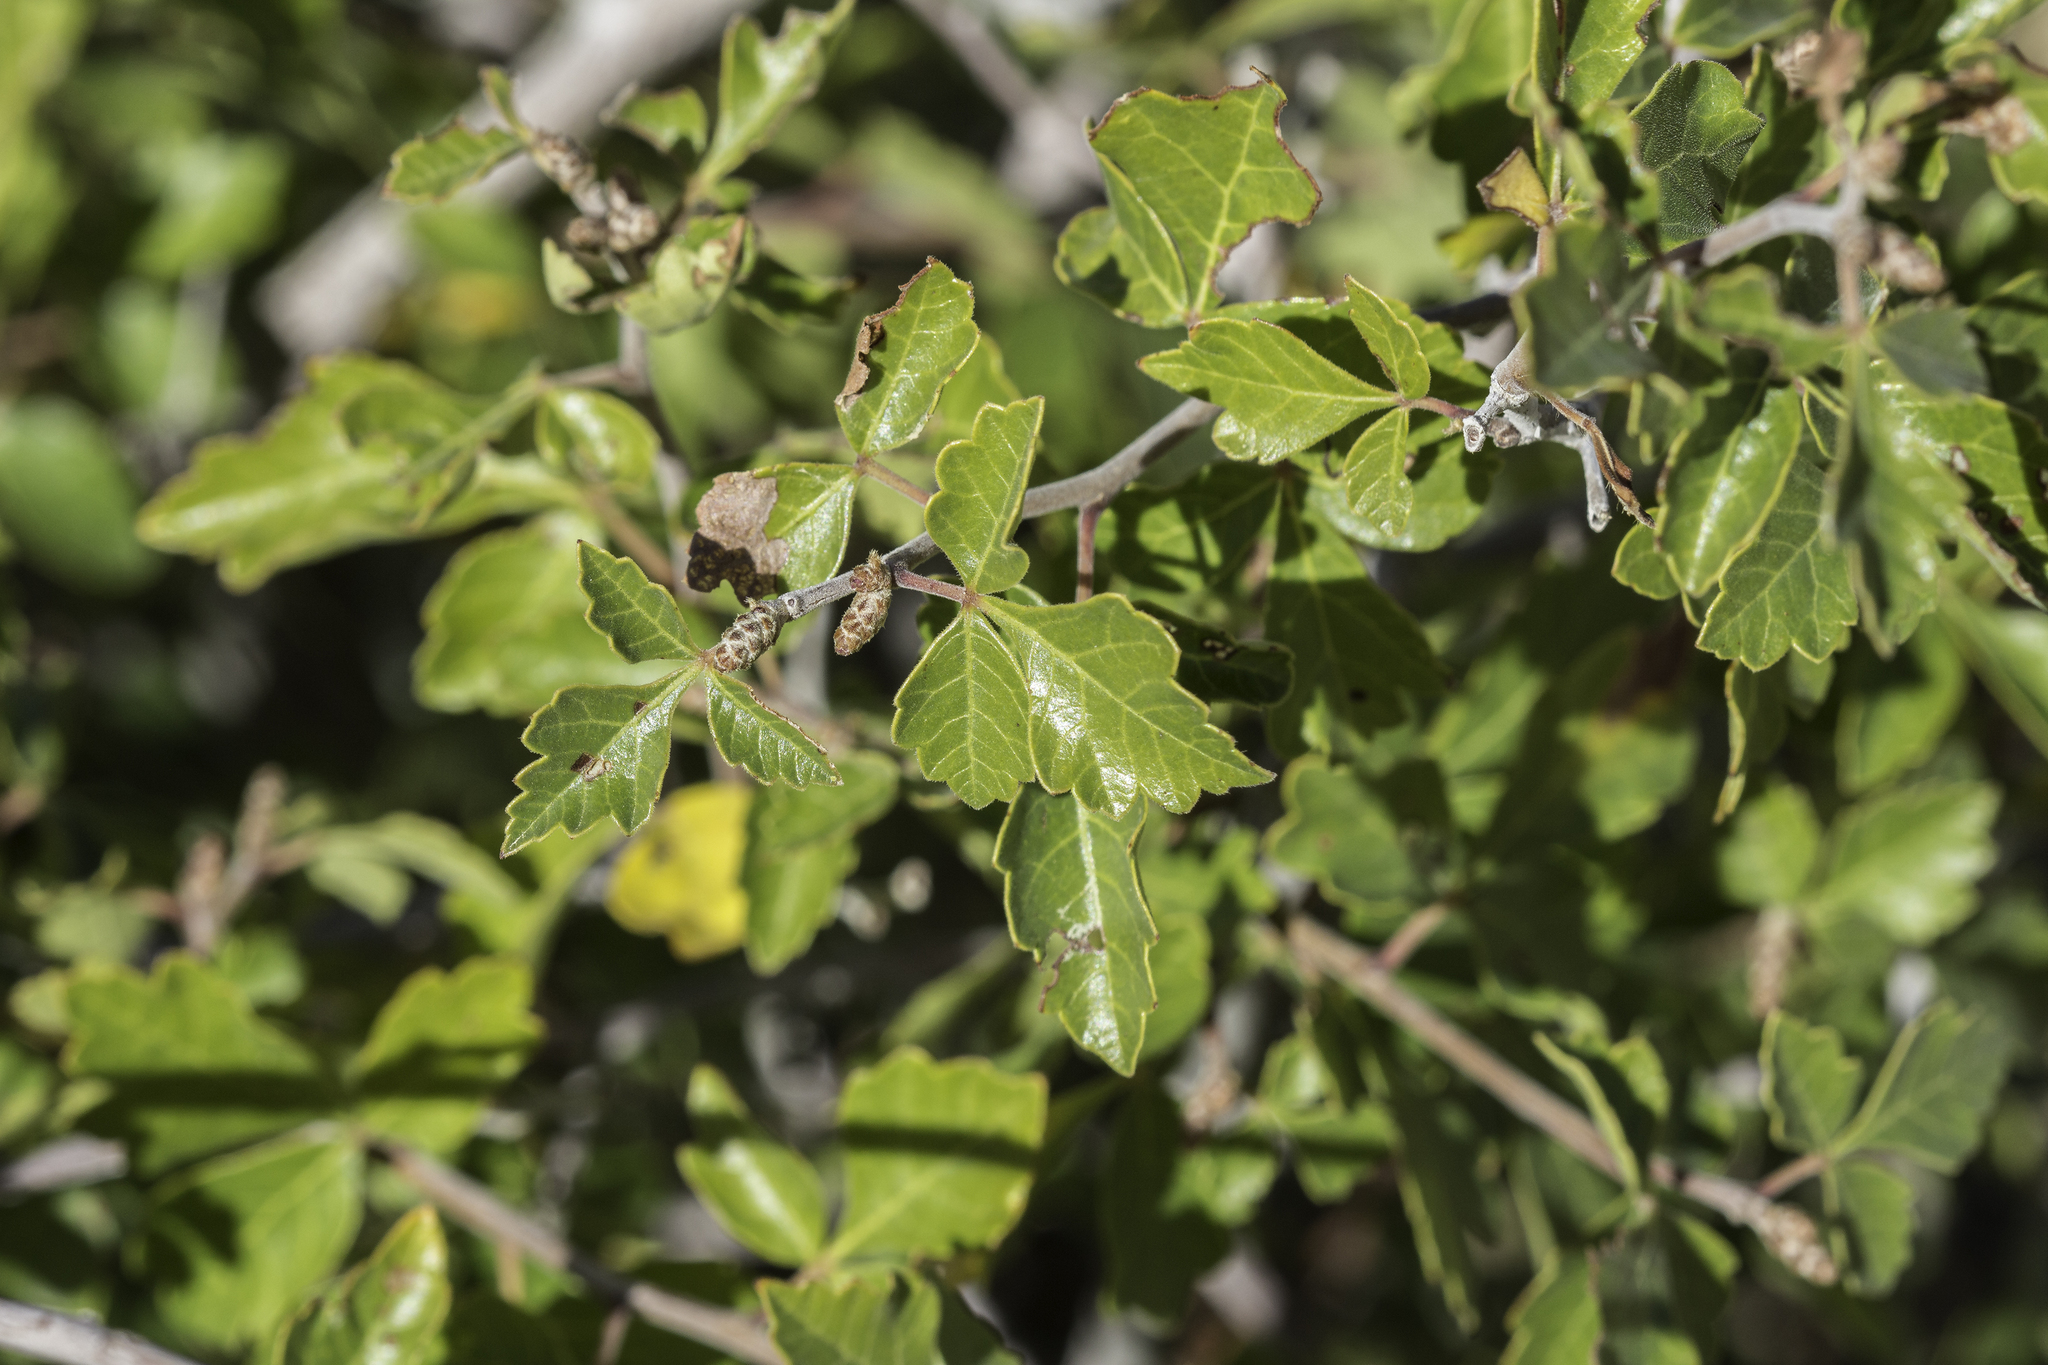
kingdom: Plantae
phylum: Tracheophyta
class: Magnoliopsida
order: Sapindales
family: Anacardiaceae
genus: Rhus
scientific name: Rhus aromatica
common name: Aromatic sumac
